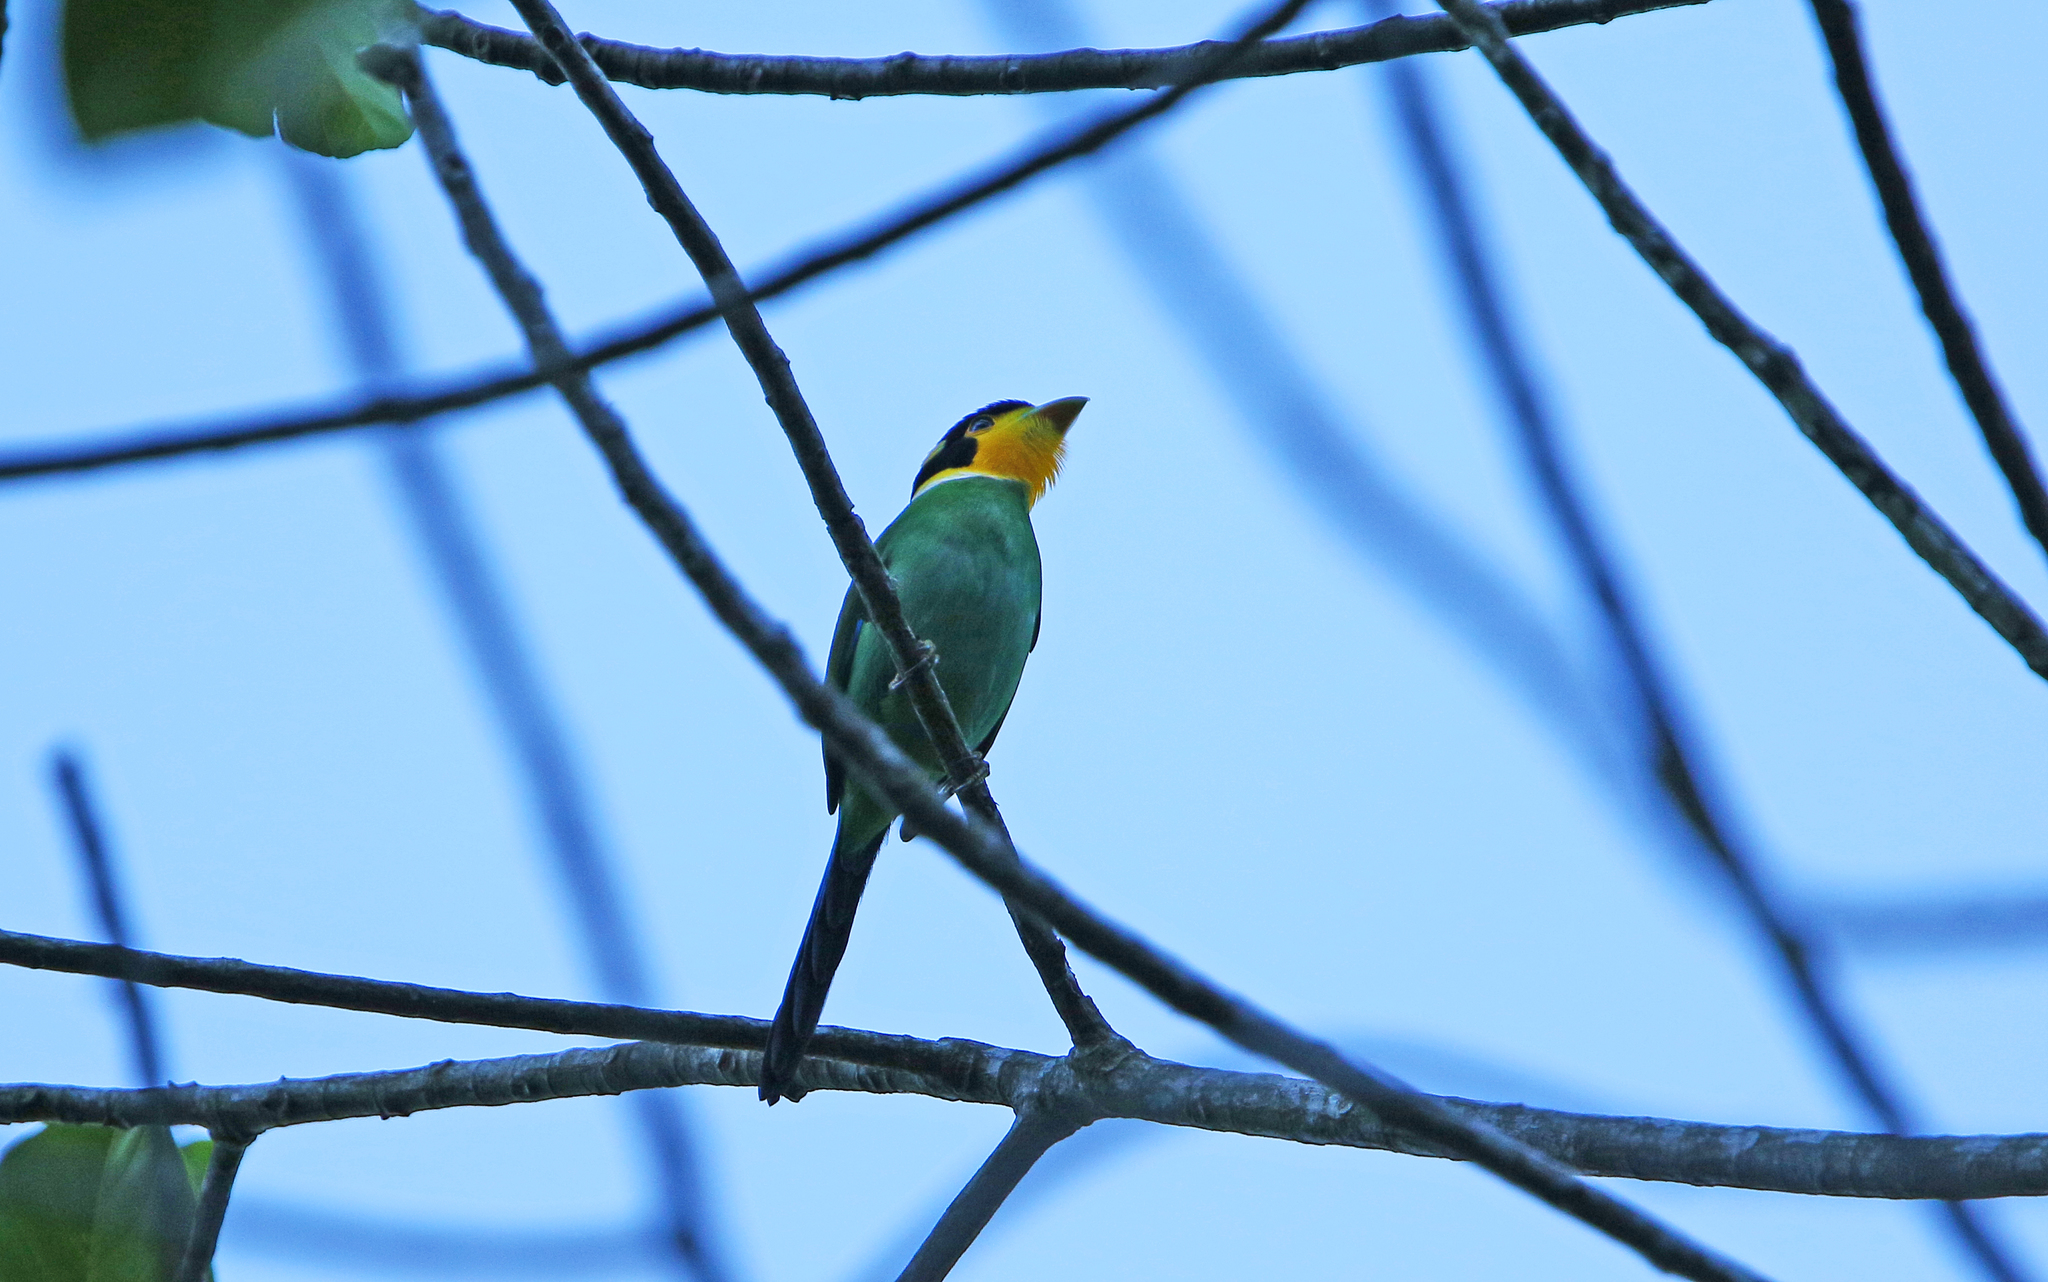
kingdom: Animalia
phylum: Chordata
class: Aves
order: Passeriformes
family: Eurylaimidae
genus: Psarisomus
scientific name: Psarisomus dalhousiae
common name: Long-tailed broadbill
